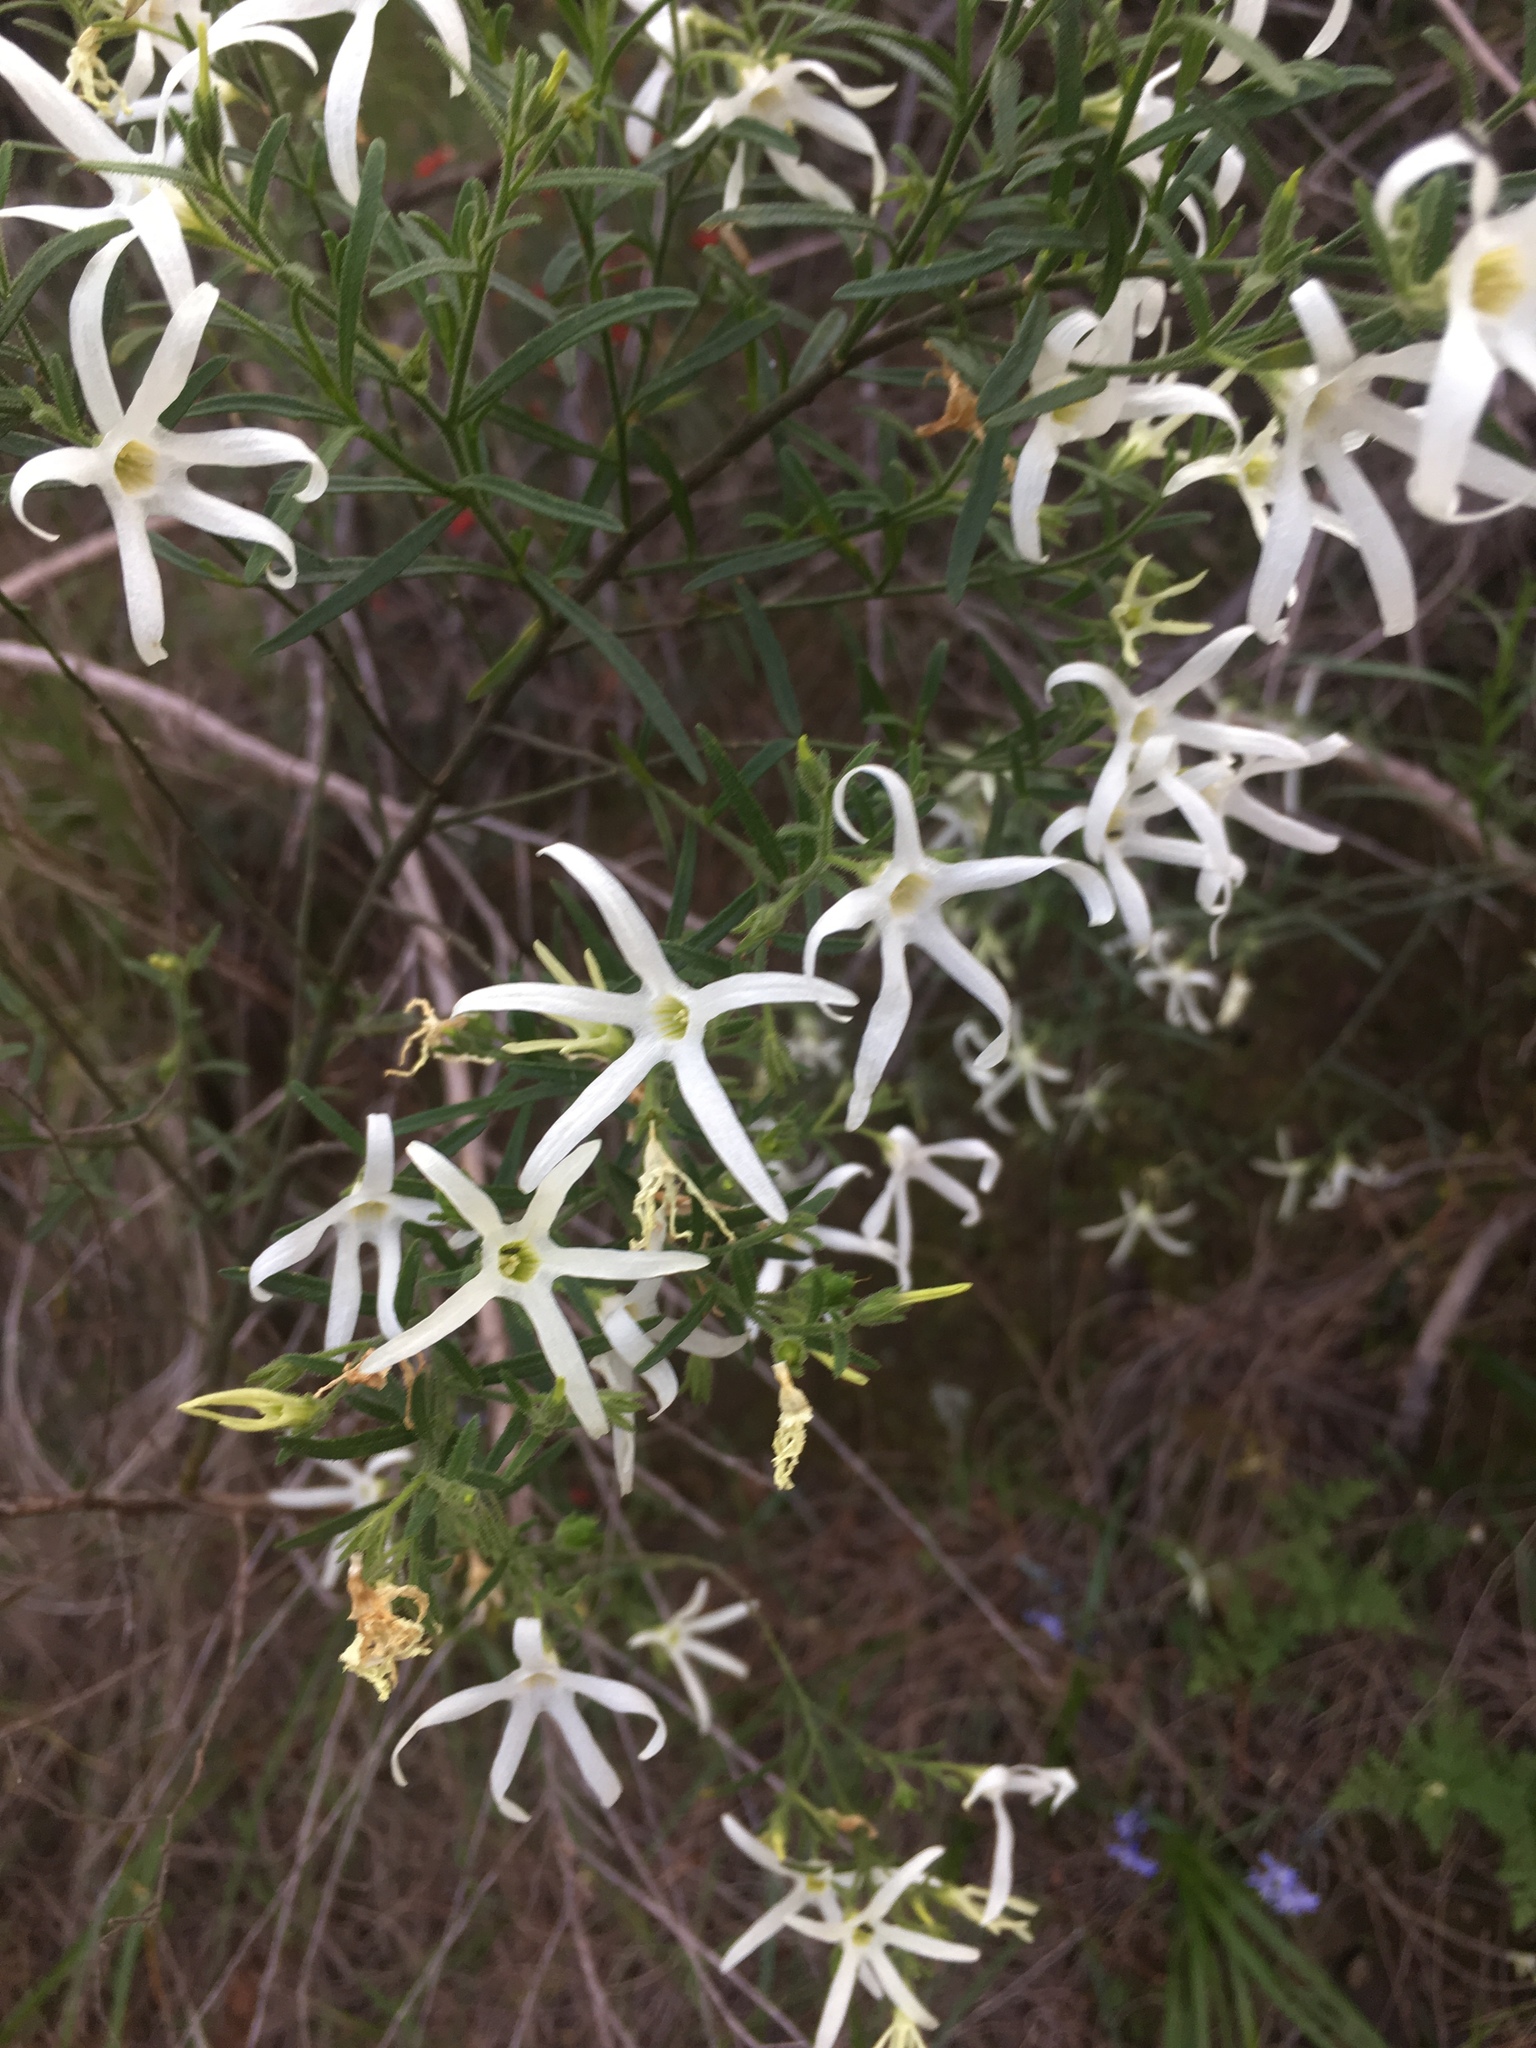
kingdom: Plantae
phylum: Tracheophyta
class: Magnoliopsida
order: Solanales
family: Solanaceae
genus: Anthocercis
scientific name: Anthocercis angustifolia
